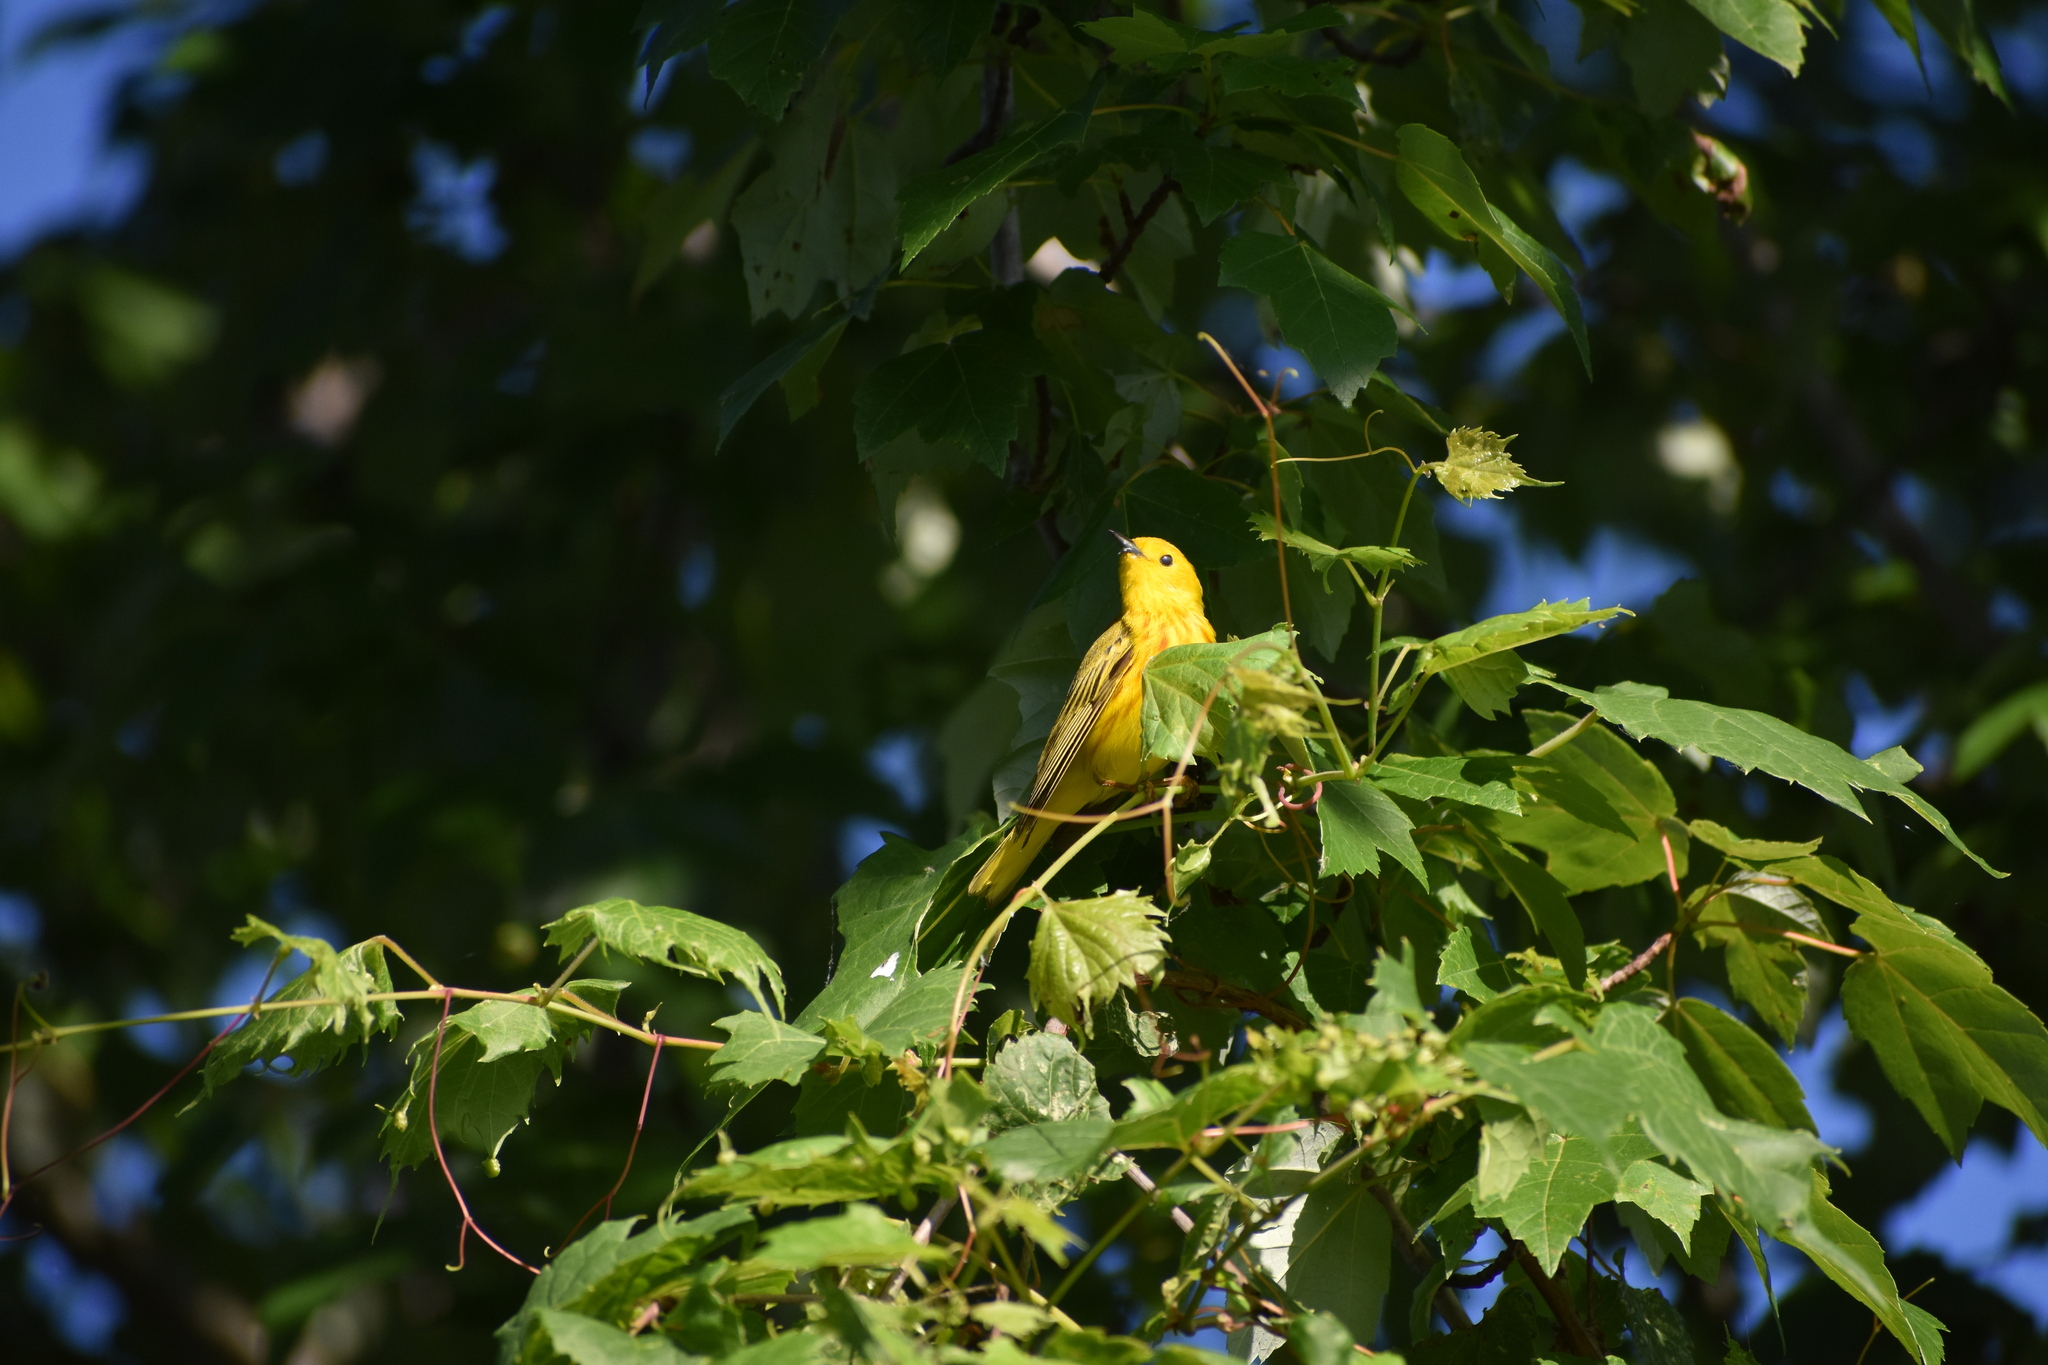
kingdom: Animalia
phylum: Chordata
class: Aves
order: Passeriformes
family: Parulidae
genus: Setophaga
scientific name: Setophaga petechia
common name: Yellow warbler
